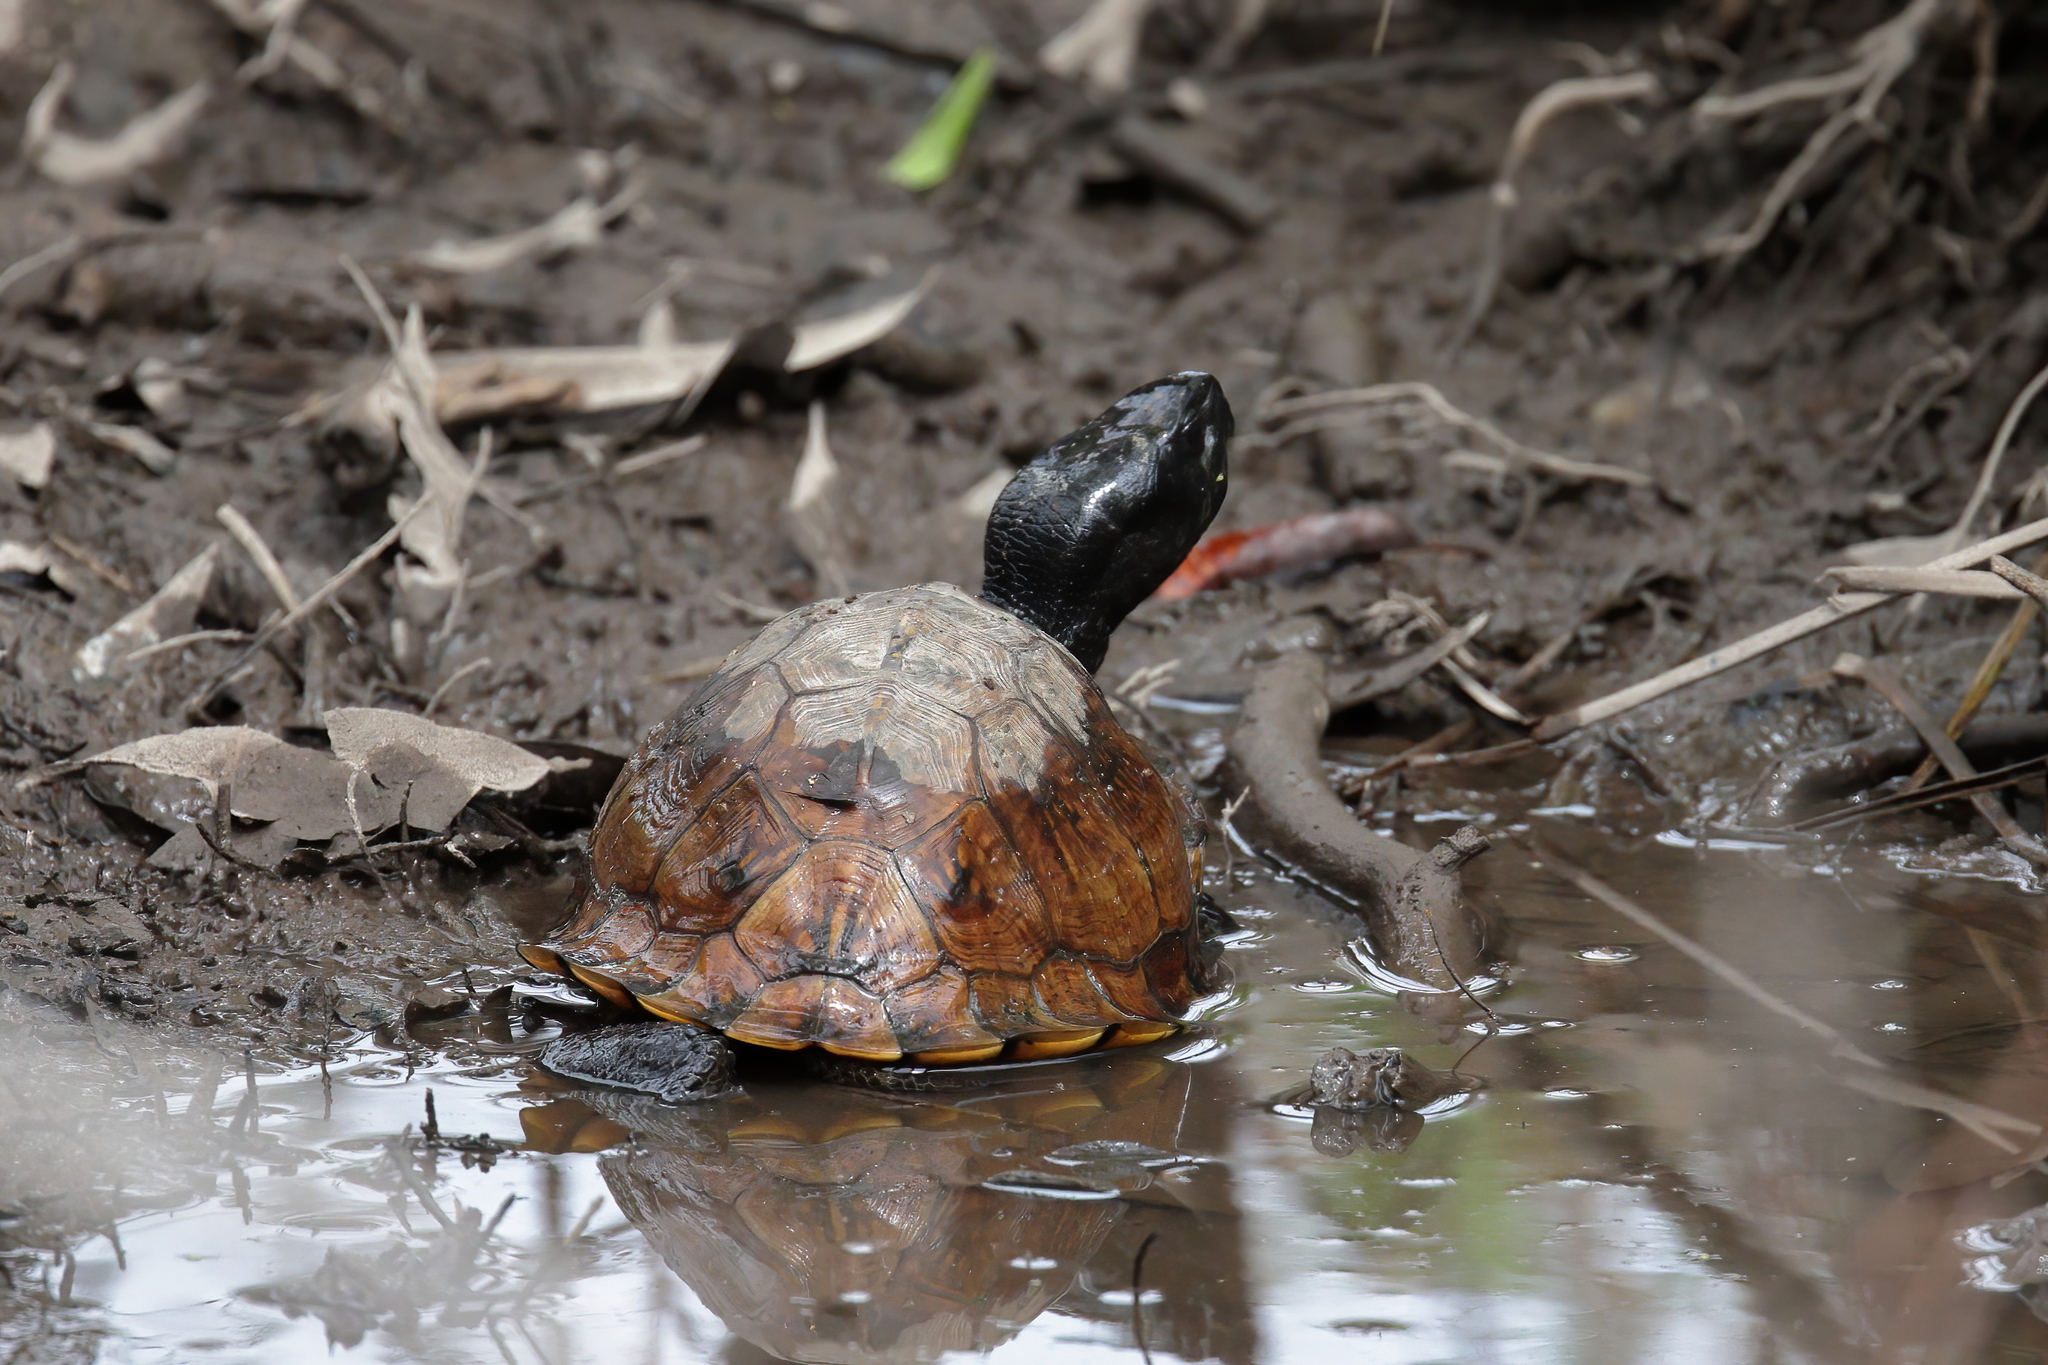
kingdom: Animalia
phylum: Chordata
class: Testudines
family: Emydidae
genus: Terrapene
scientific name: Terrapene carolina
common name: Common box turtle
